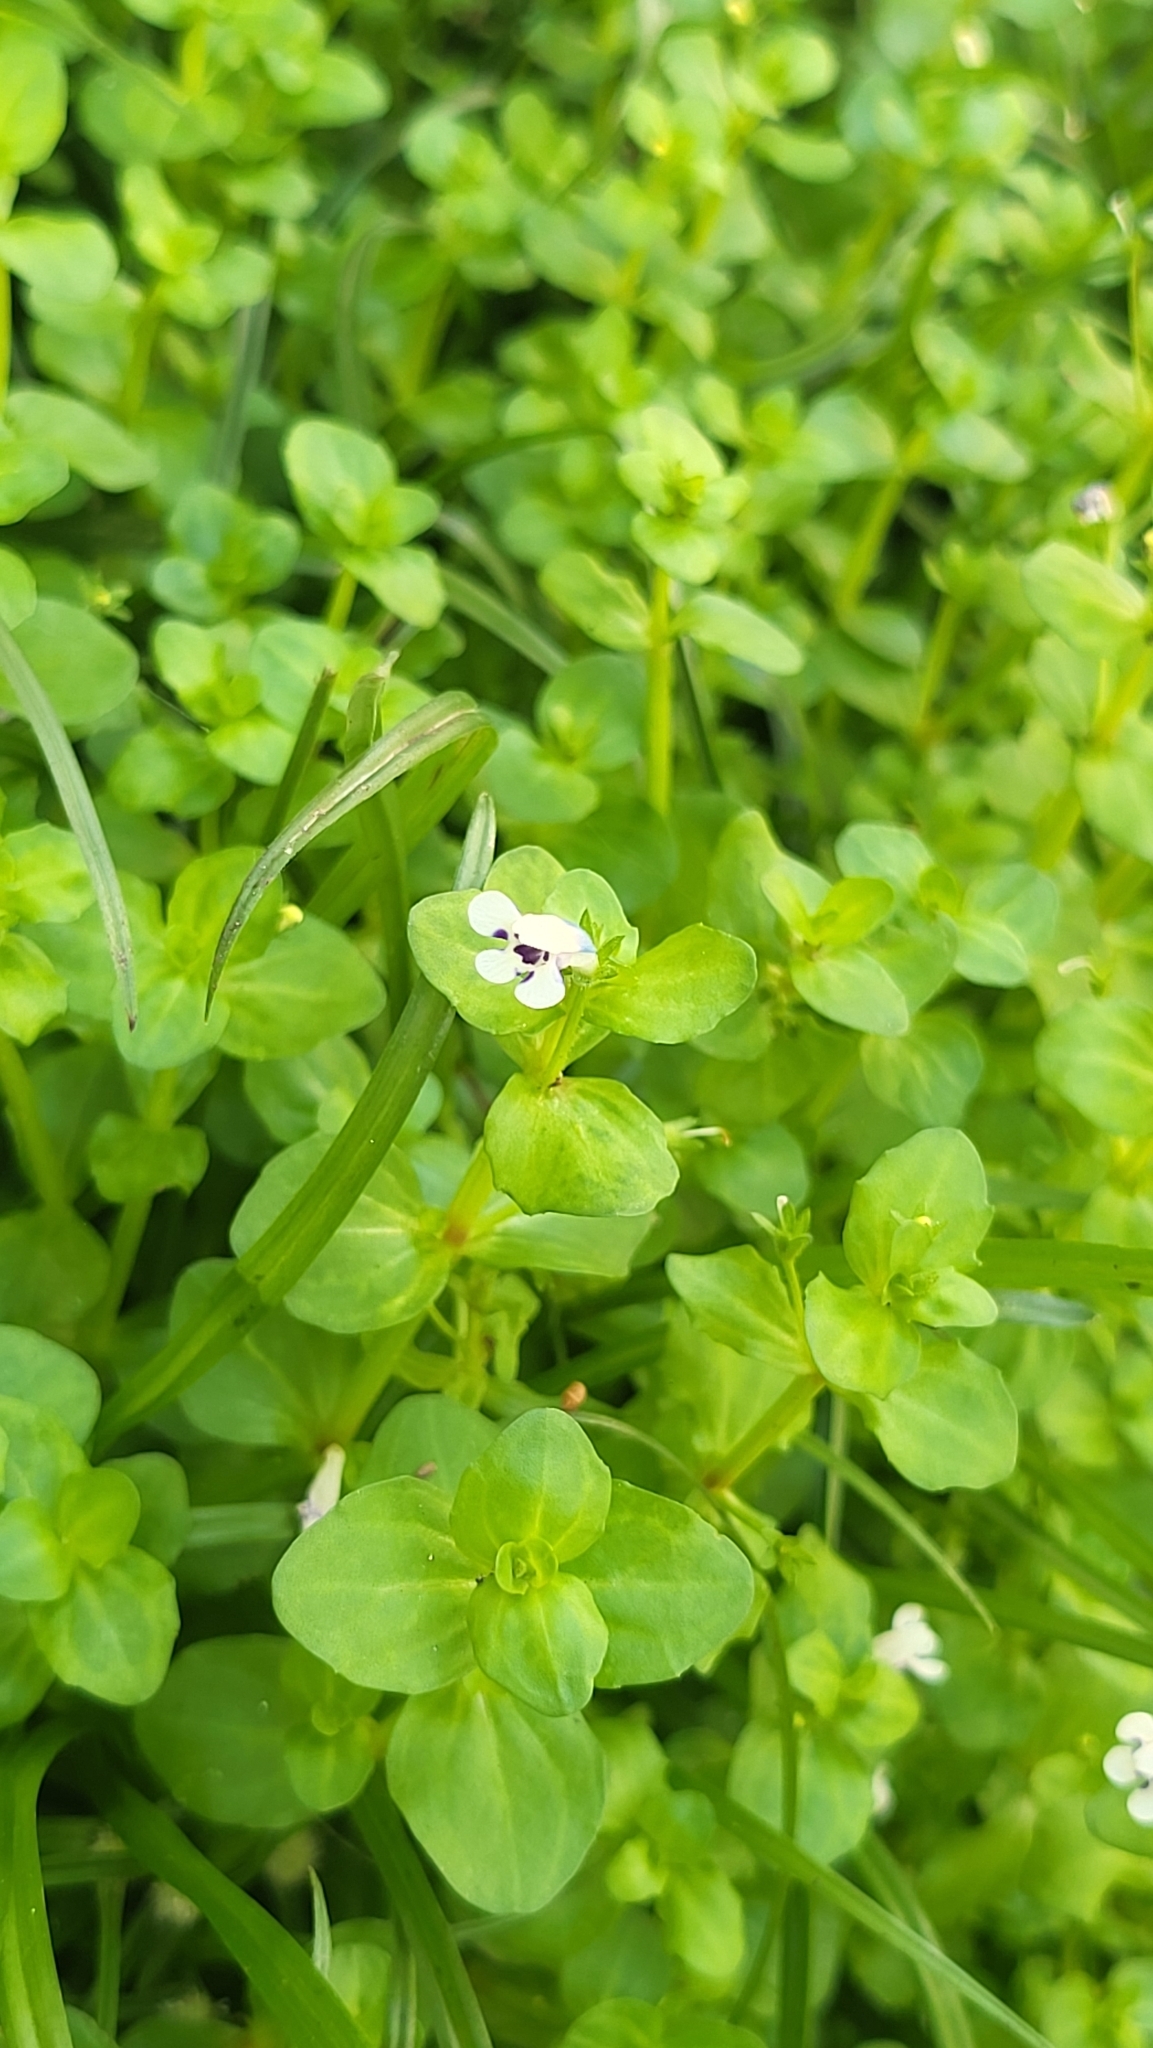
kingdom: Plantae
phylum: Tracheophyta
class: Magnoliopsida
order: Lamiales
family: Linderniaceae
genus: Lindernia
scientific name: Lindernia rotundifolia
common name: Baby’s tears
